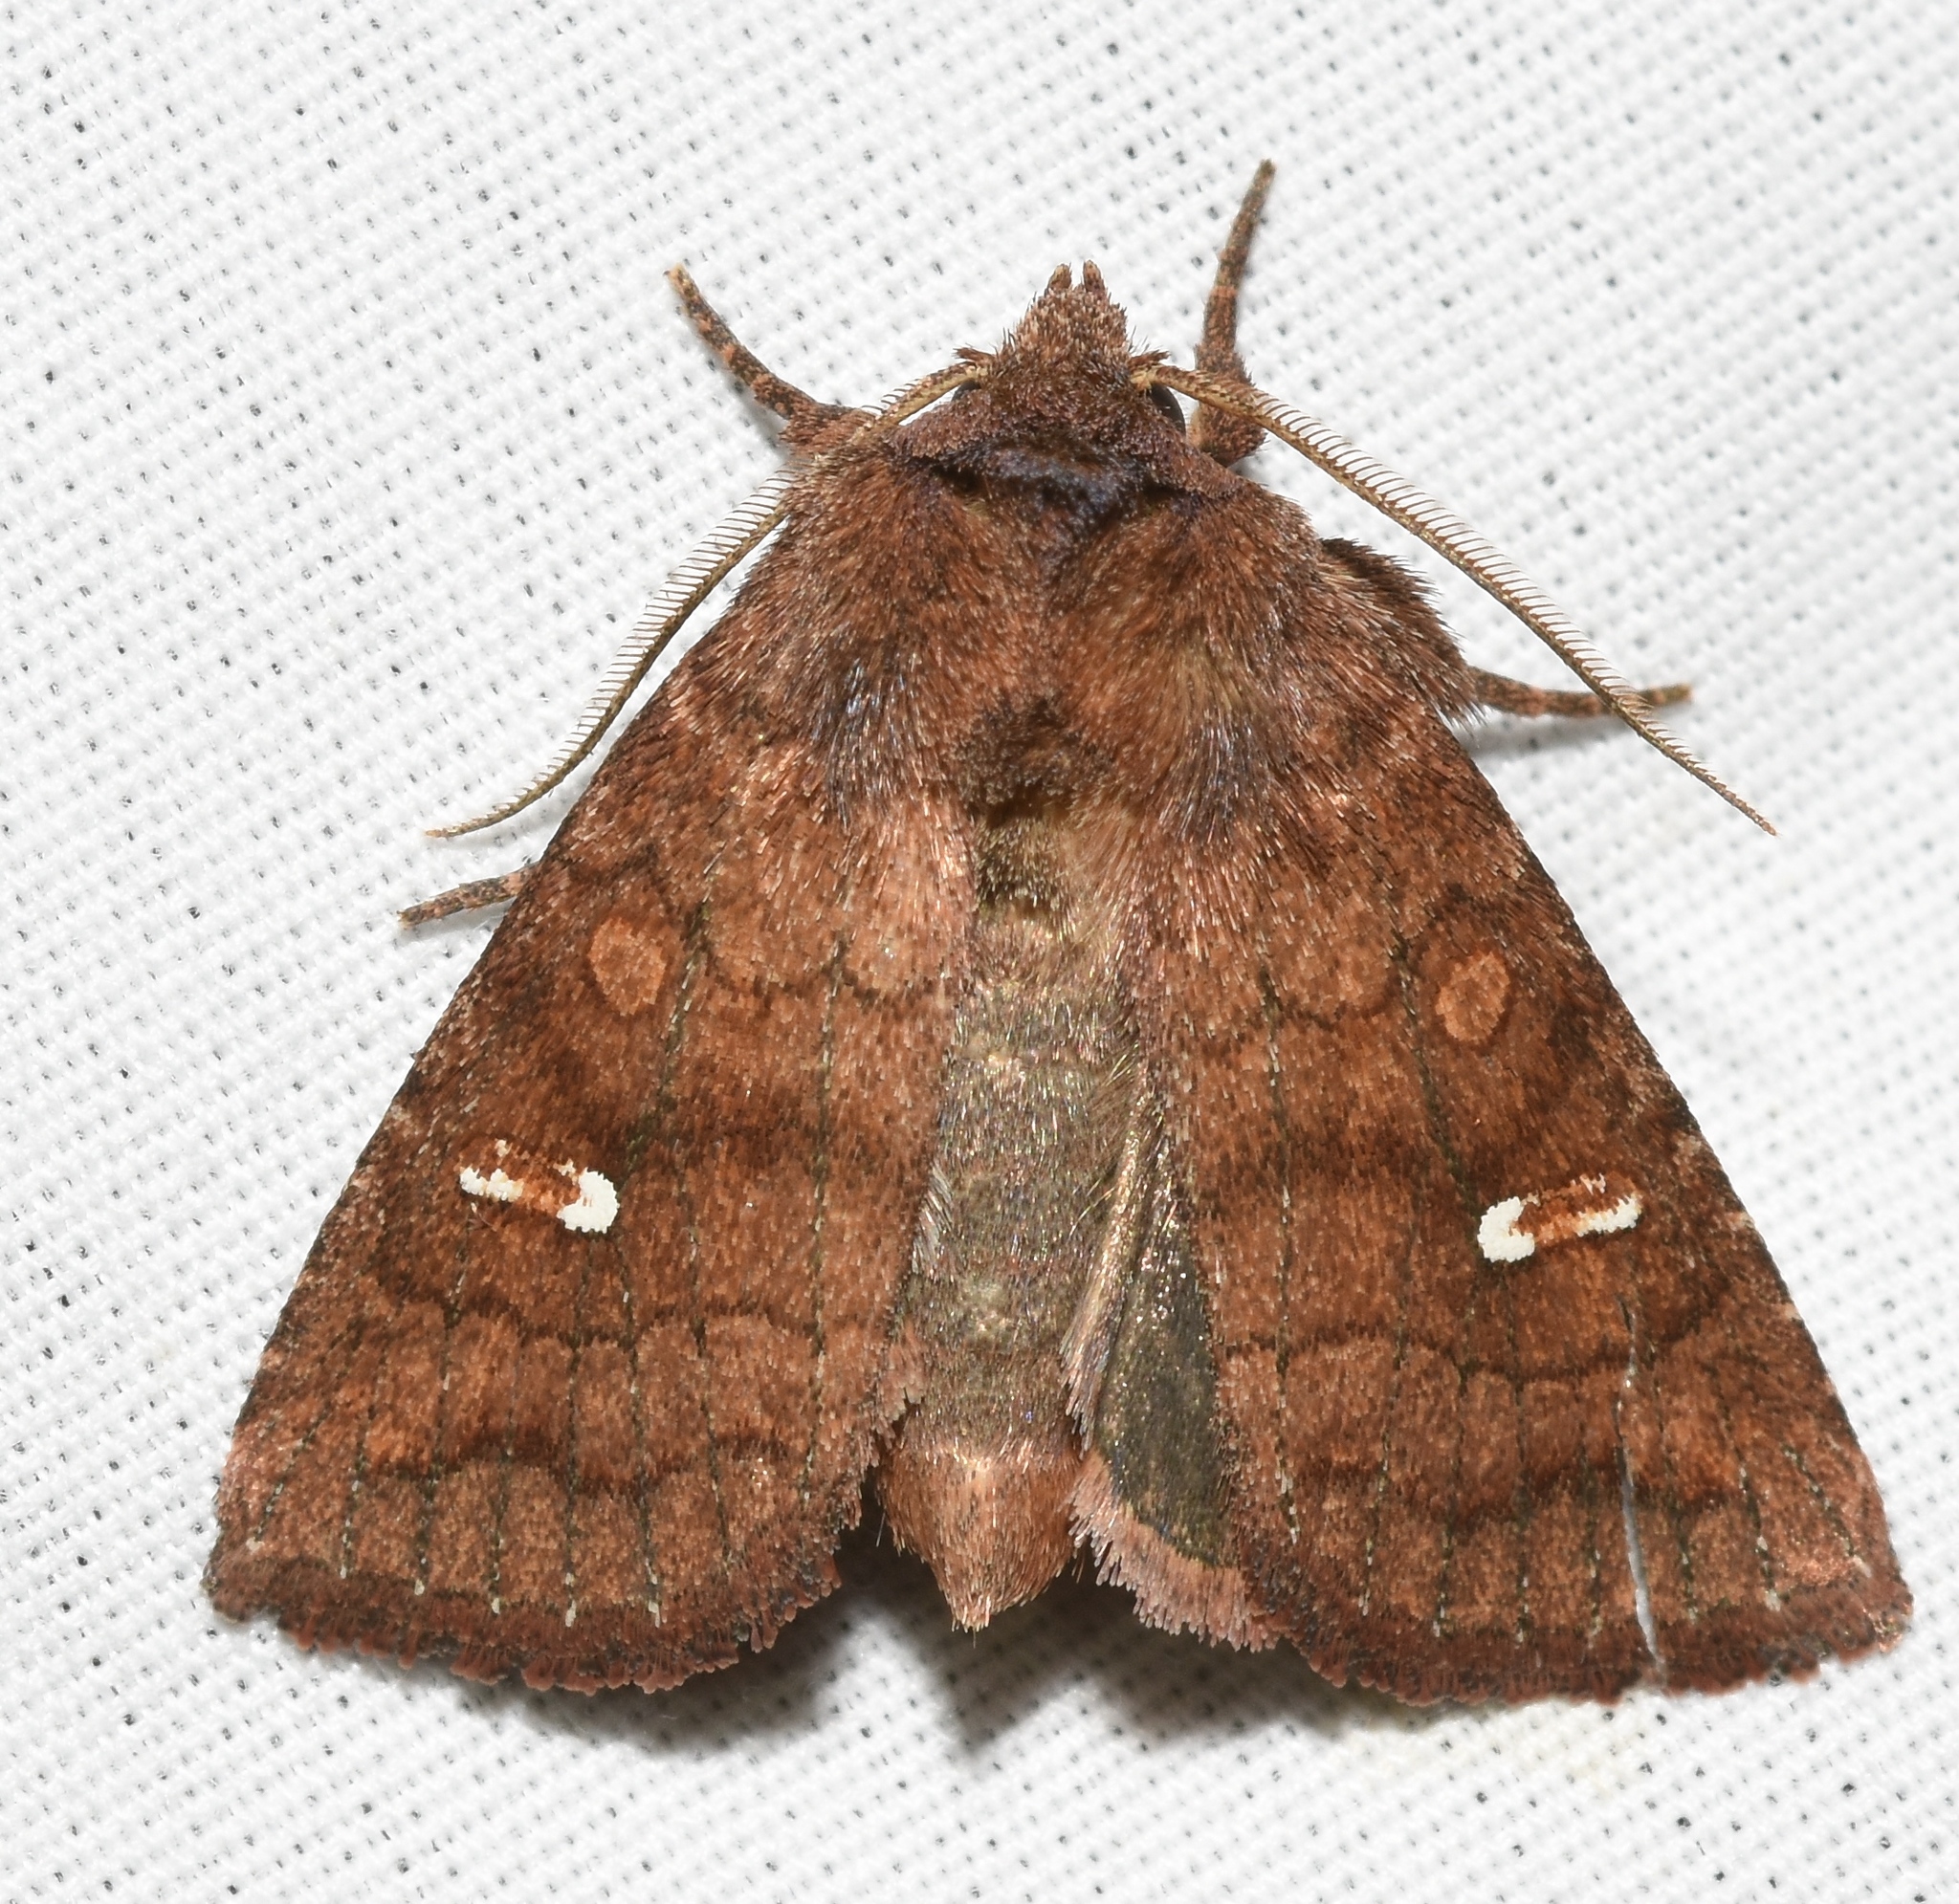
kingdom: Animalia
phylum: Arthropoda
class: Insecta
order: Lepidoptera
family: Noctuidae
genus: Tricholita
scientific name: Tricholita signata
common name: Signate quaker
